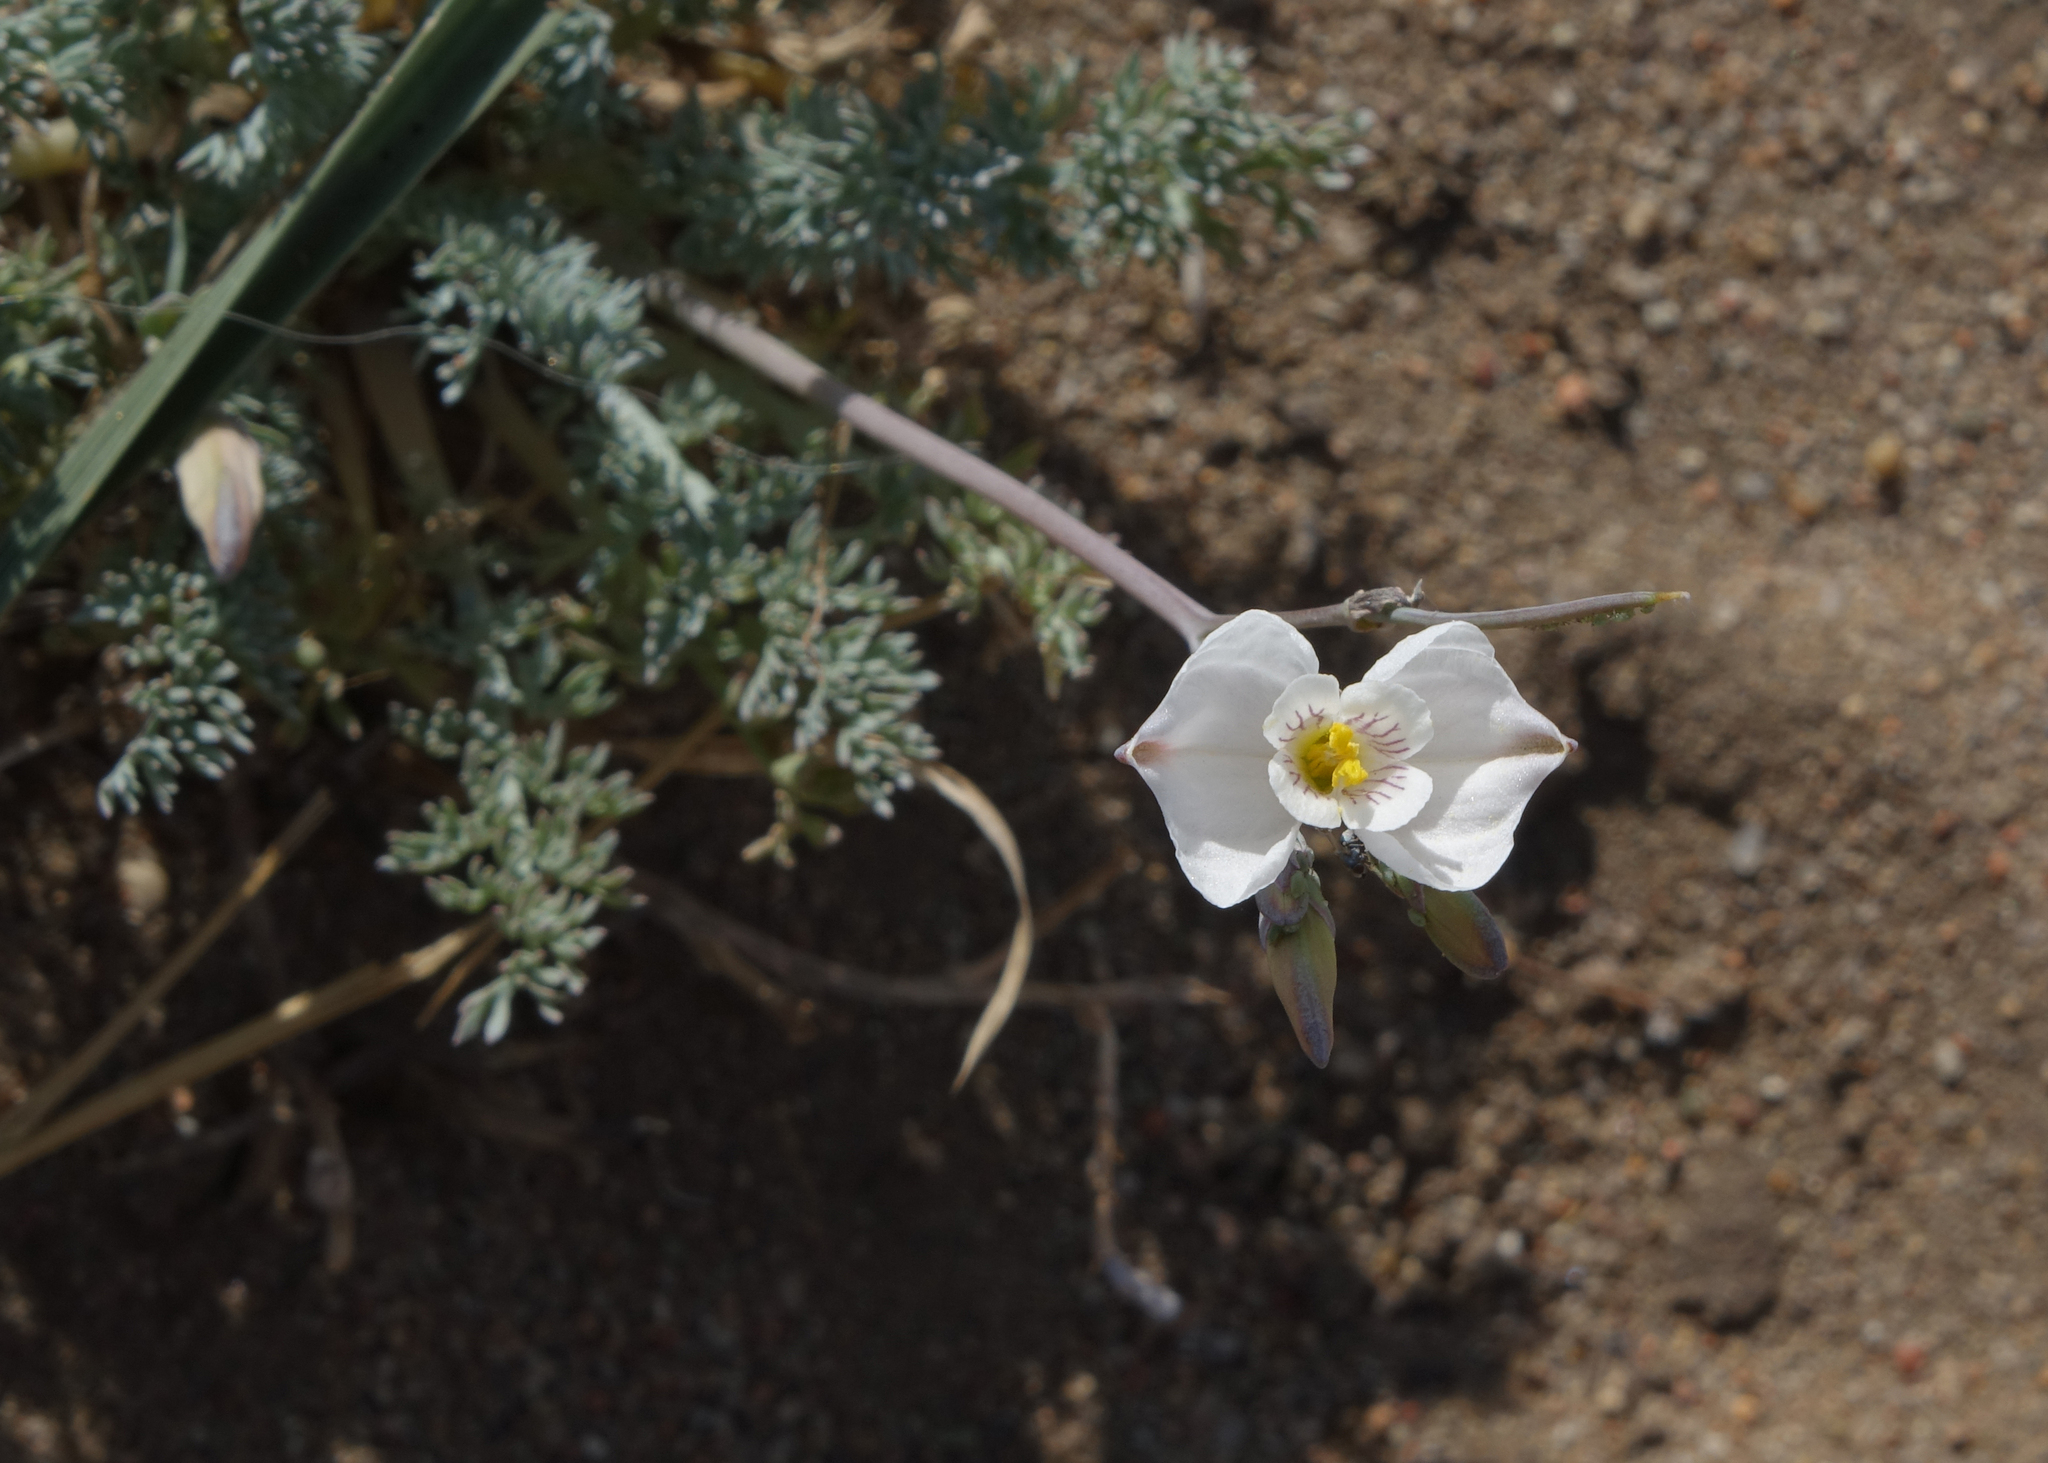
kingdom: Plantae
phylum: Tracheophyta
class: Magnoliopsida
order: Ranunculales
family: Papaveraceae
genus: Hypecoum
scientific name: Hypecoum lactiflorum
